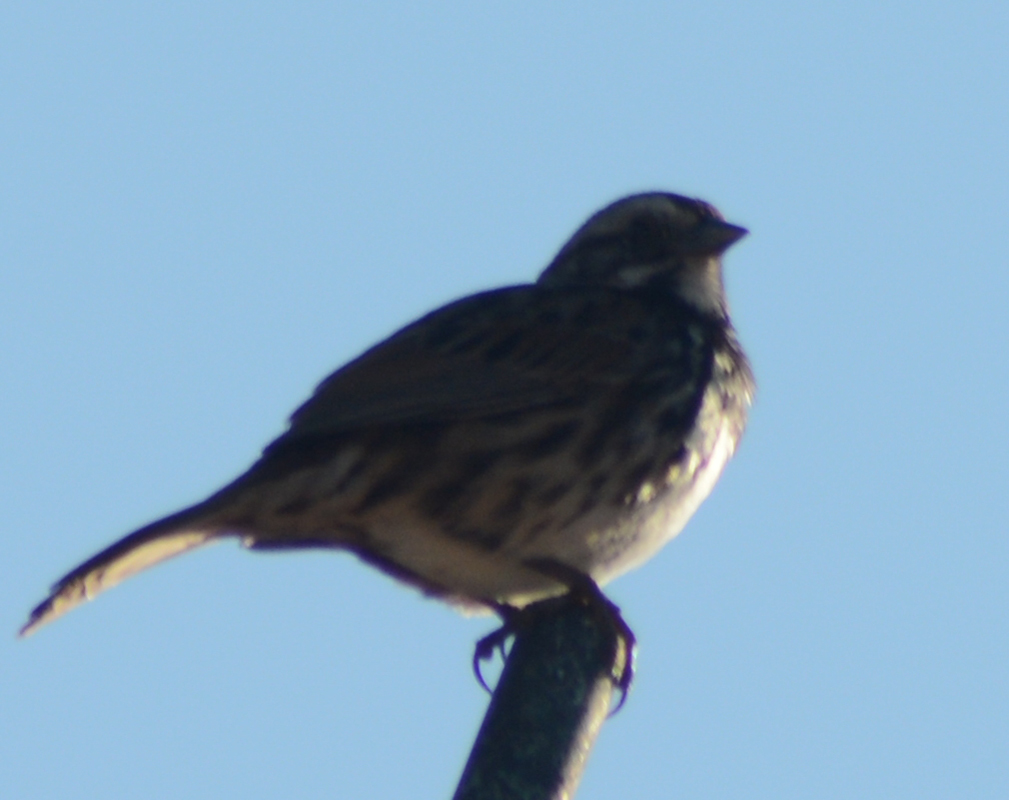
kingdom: Animalia
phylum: Chordata
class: Aves
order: Passeriformes
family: Passerellidae
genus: Melospiza
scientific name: Melospiza melodia
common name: Song sparrow
